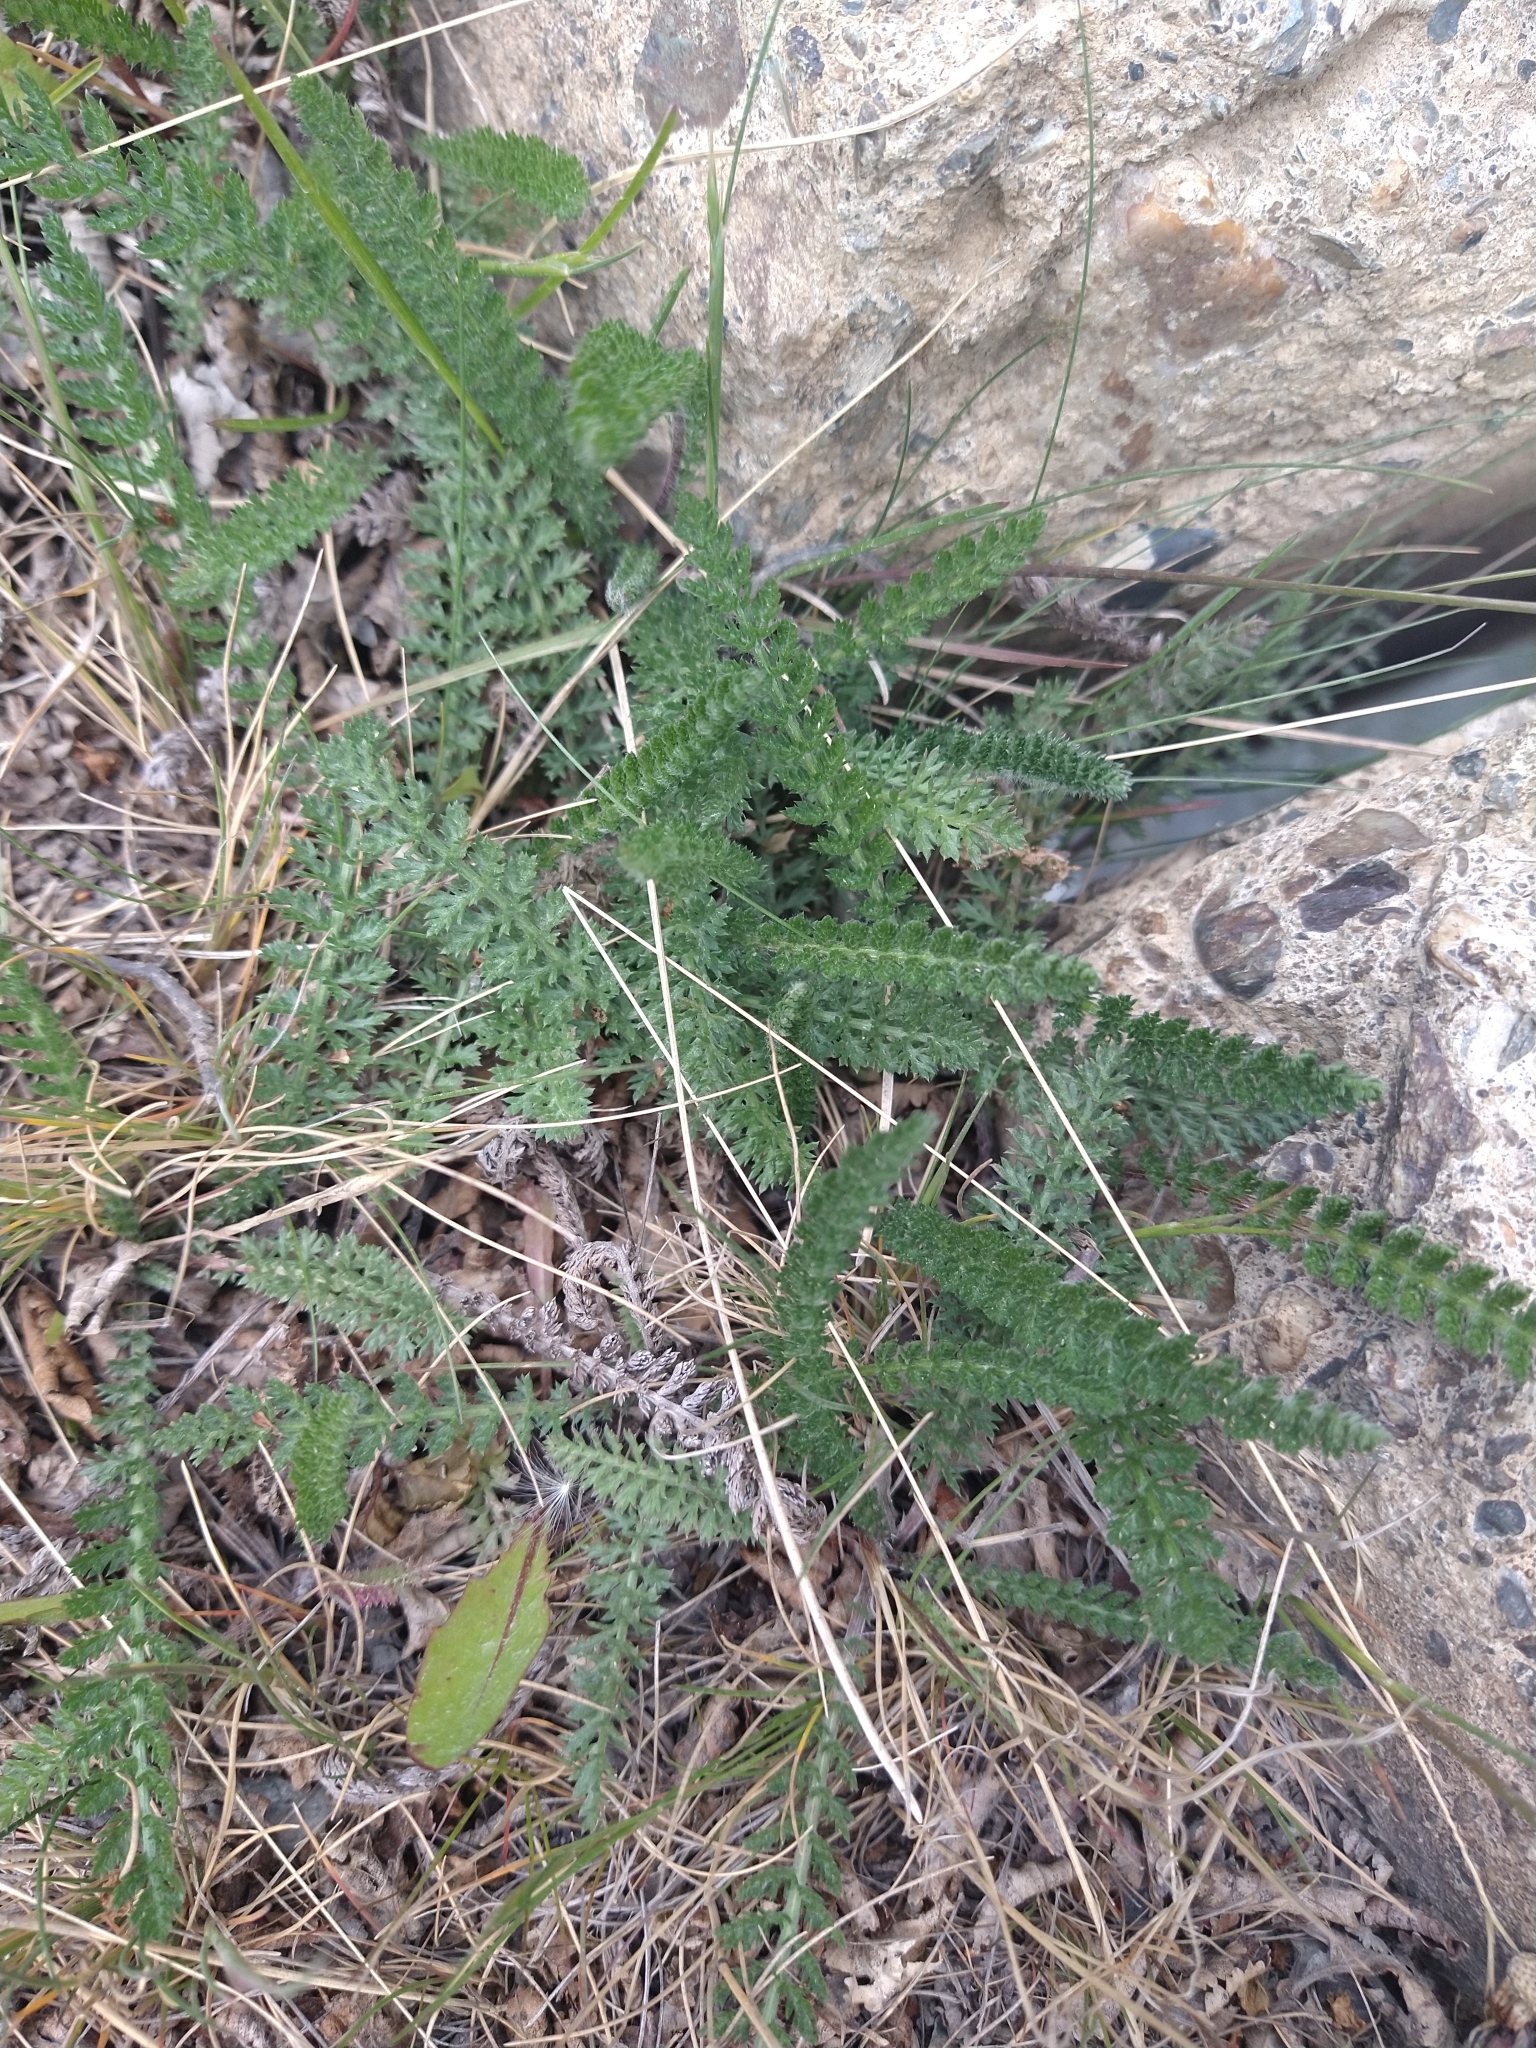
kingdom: Plantae
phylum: Tracheophyta
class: Magnoliopsida
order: Asterales
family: Asteraceae
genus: Achillea
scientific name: Achillea millefolium
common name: Yarrow
